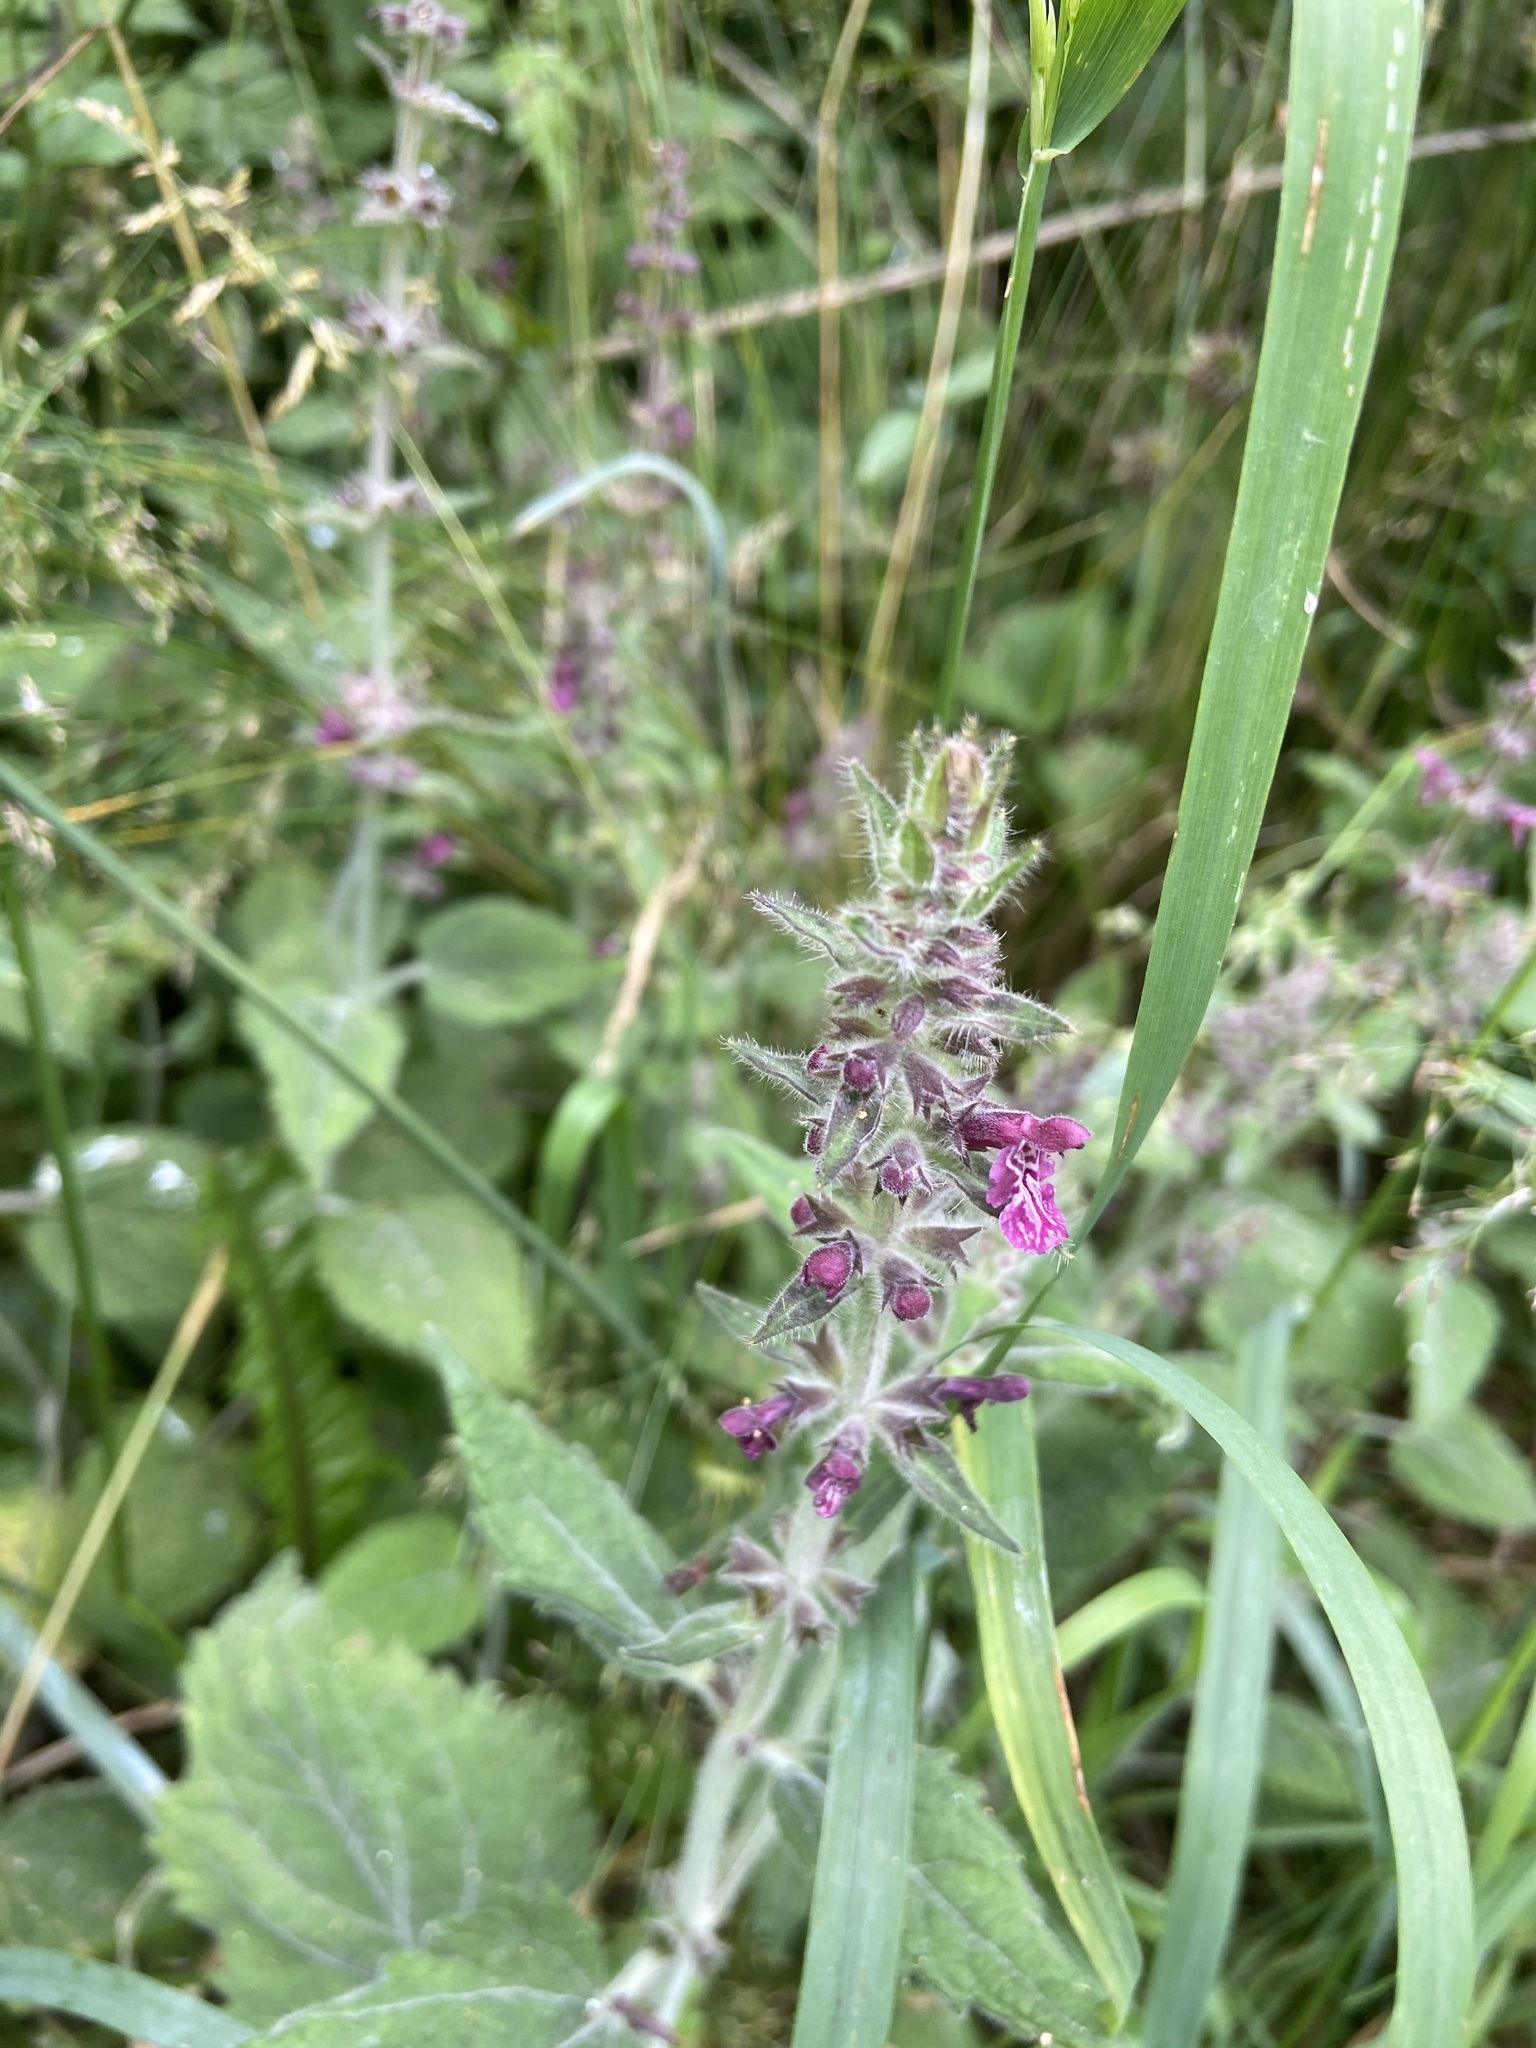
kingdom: Plantae
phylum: Tracheophyta
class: Magnoliopsida
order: Lamiales
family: Lamiaceae
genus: Stachys
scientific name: Stachys sylvatica
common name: Hedge woundwort
